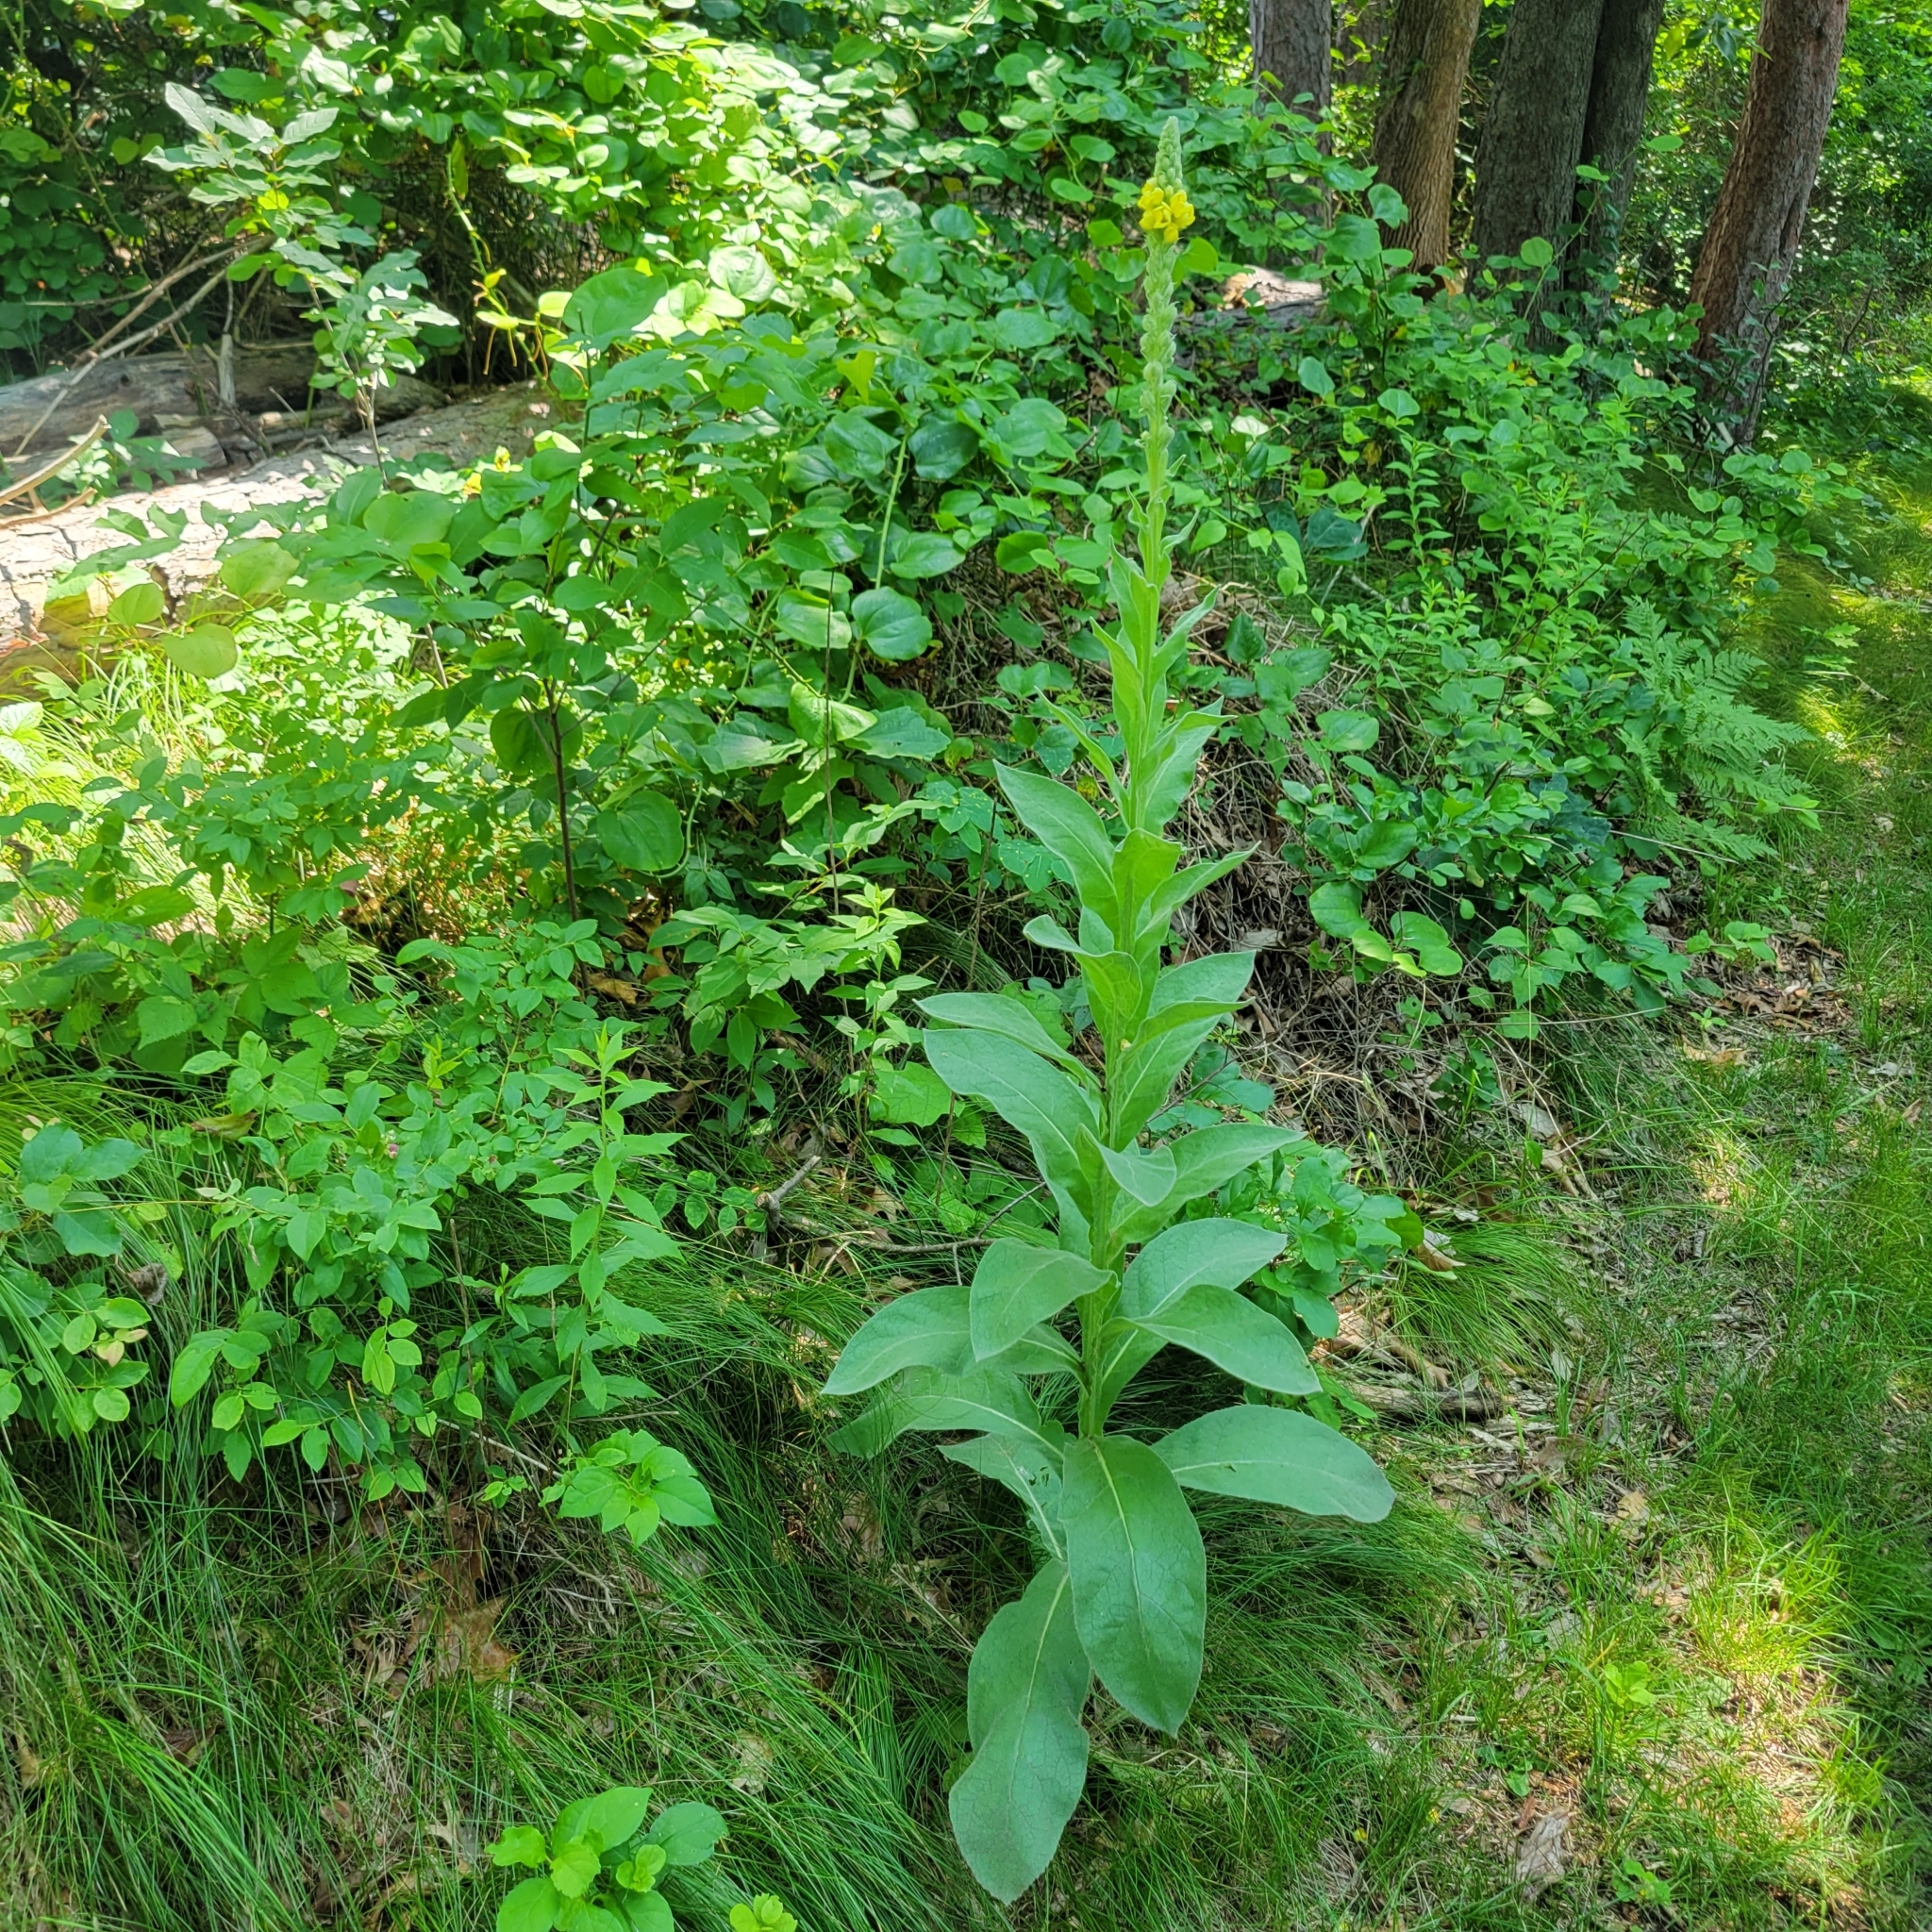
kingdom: Plantae
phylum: Tracheophyta
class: Magnoliopsida
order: Lamiales
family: Scrophulariaceae
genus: Verbascum
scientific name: Verbascum thapsus
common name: Common mullein
